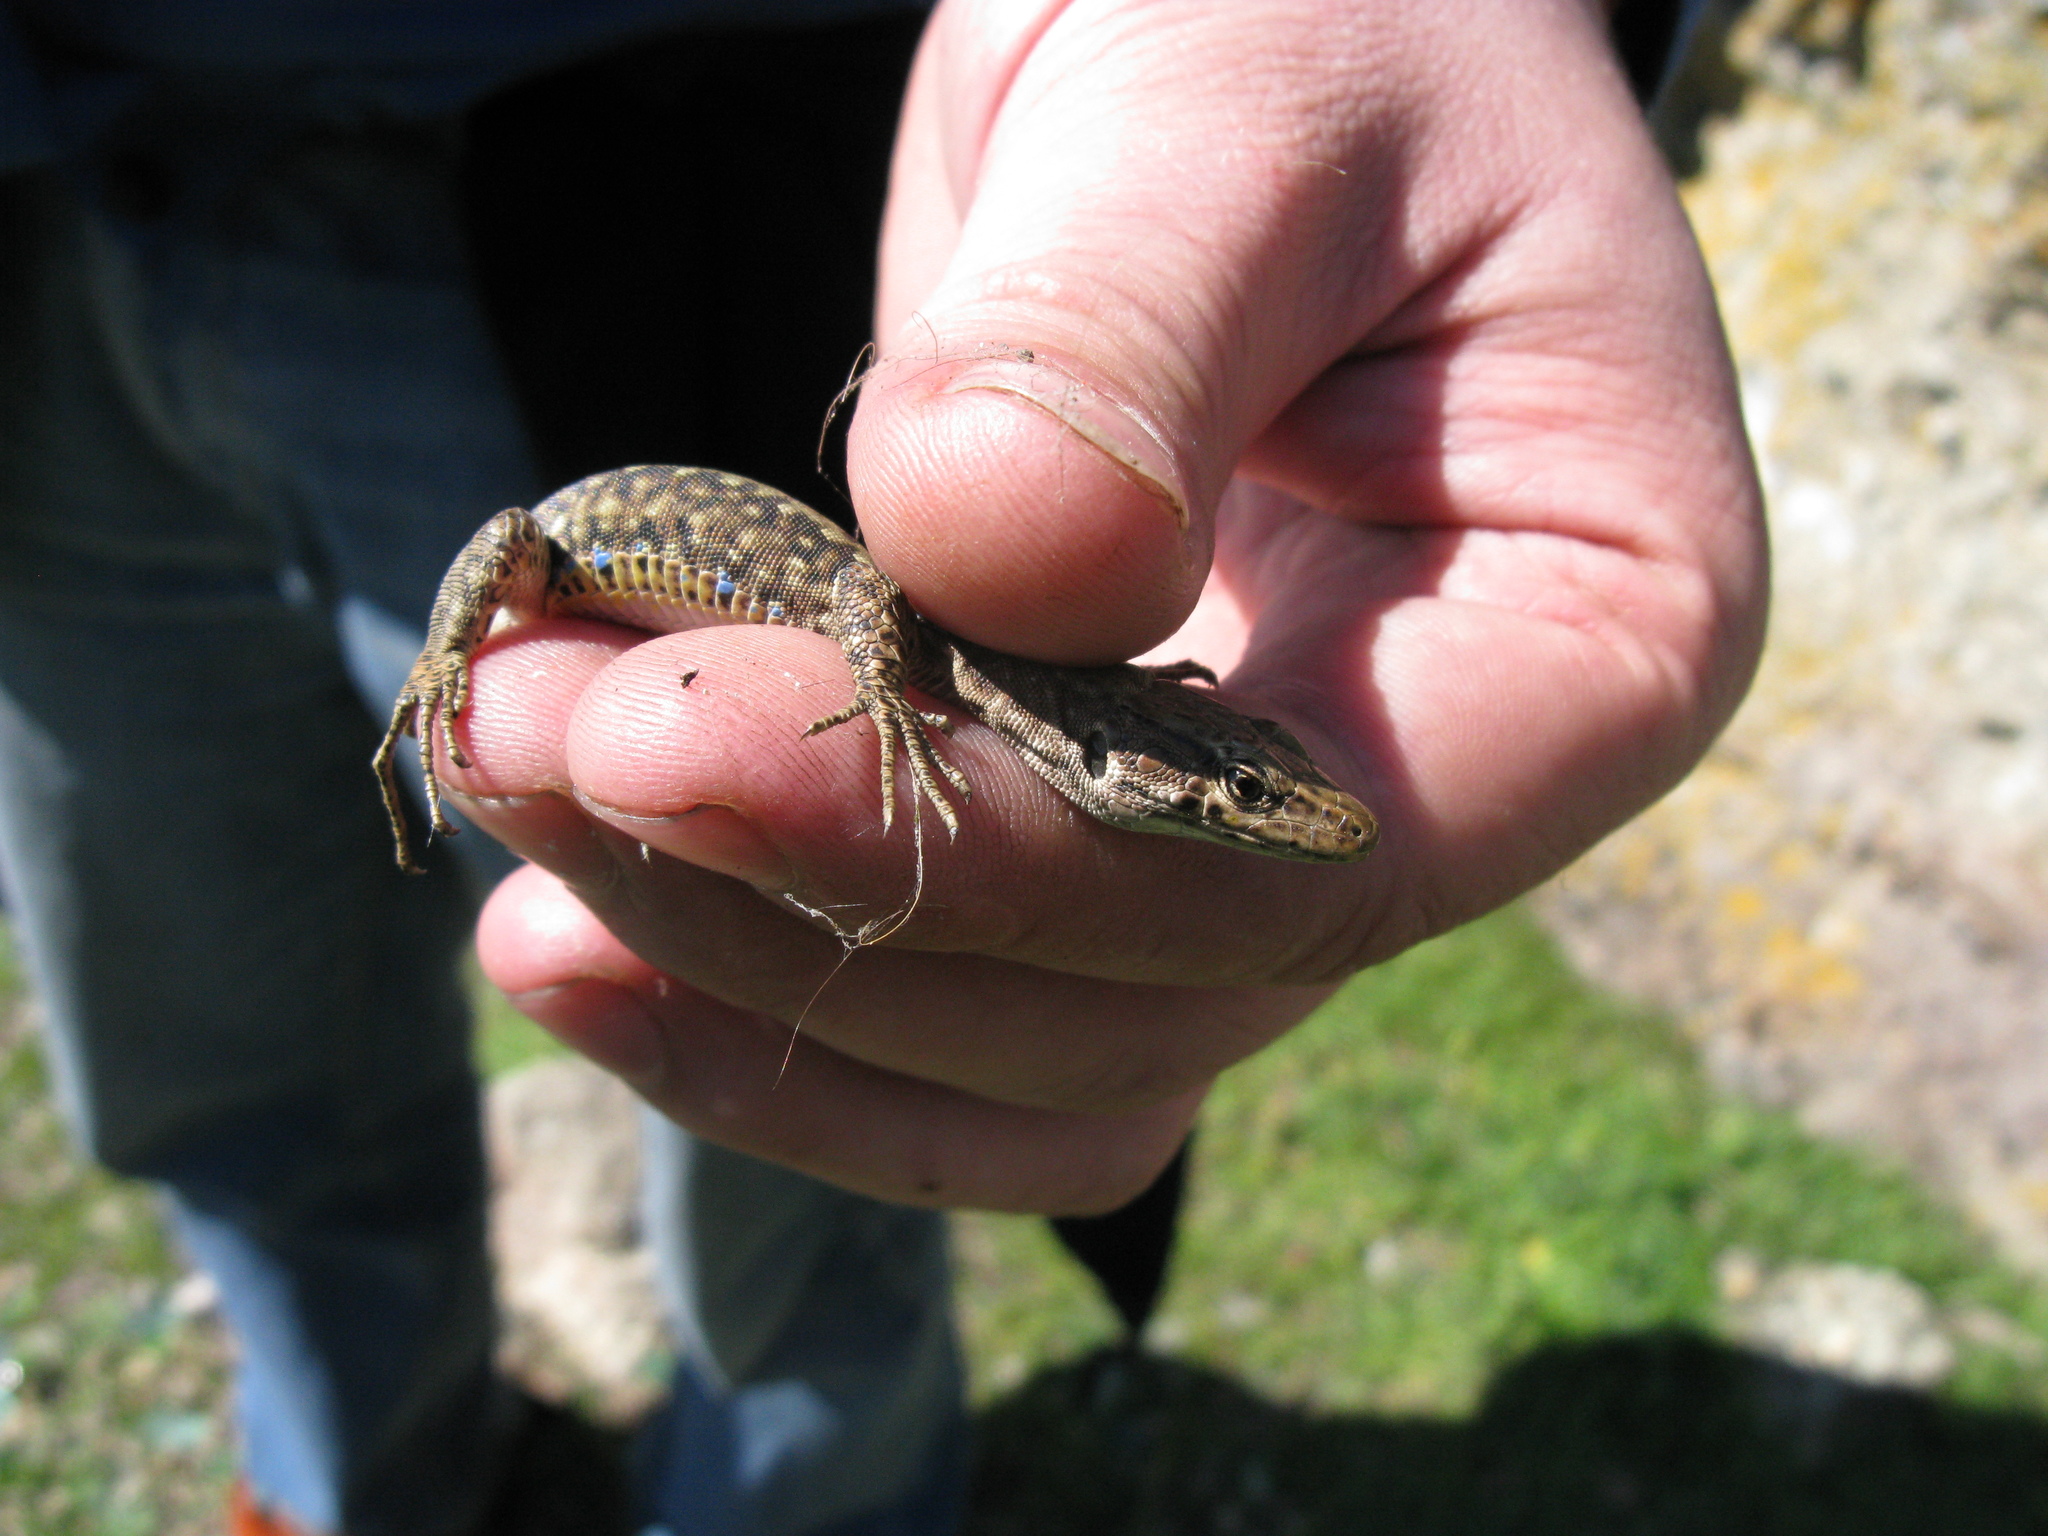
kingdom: Animalia
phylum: Chordata
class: Squamata
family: Lacertidae
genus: Darevskia
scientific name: Darevskia lindholmi
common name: Crimean rock lizard
